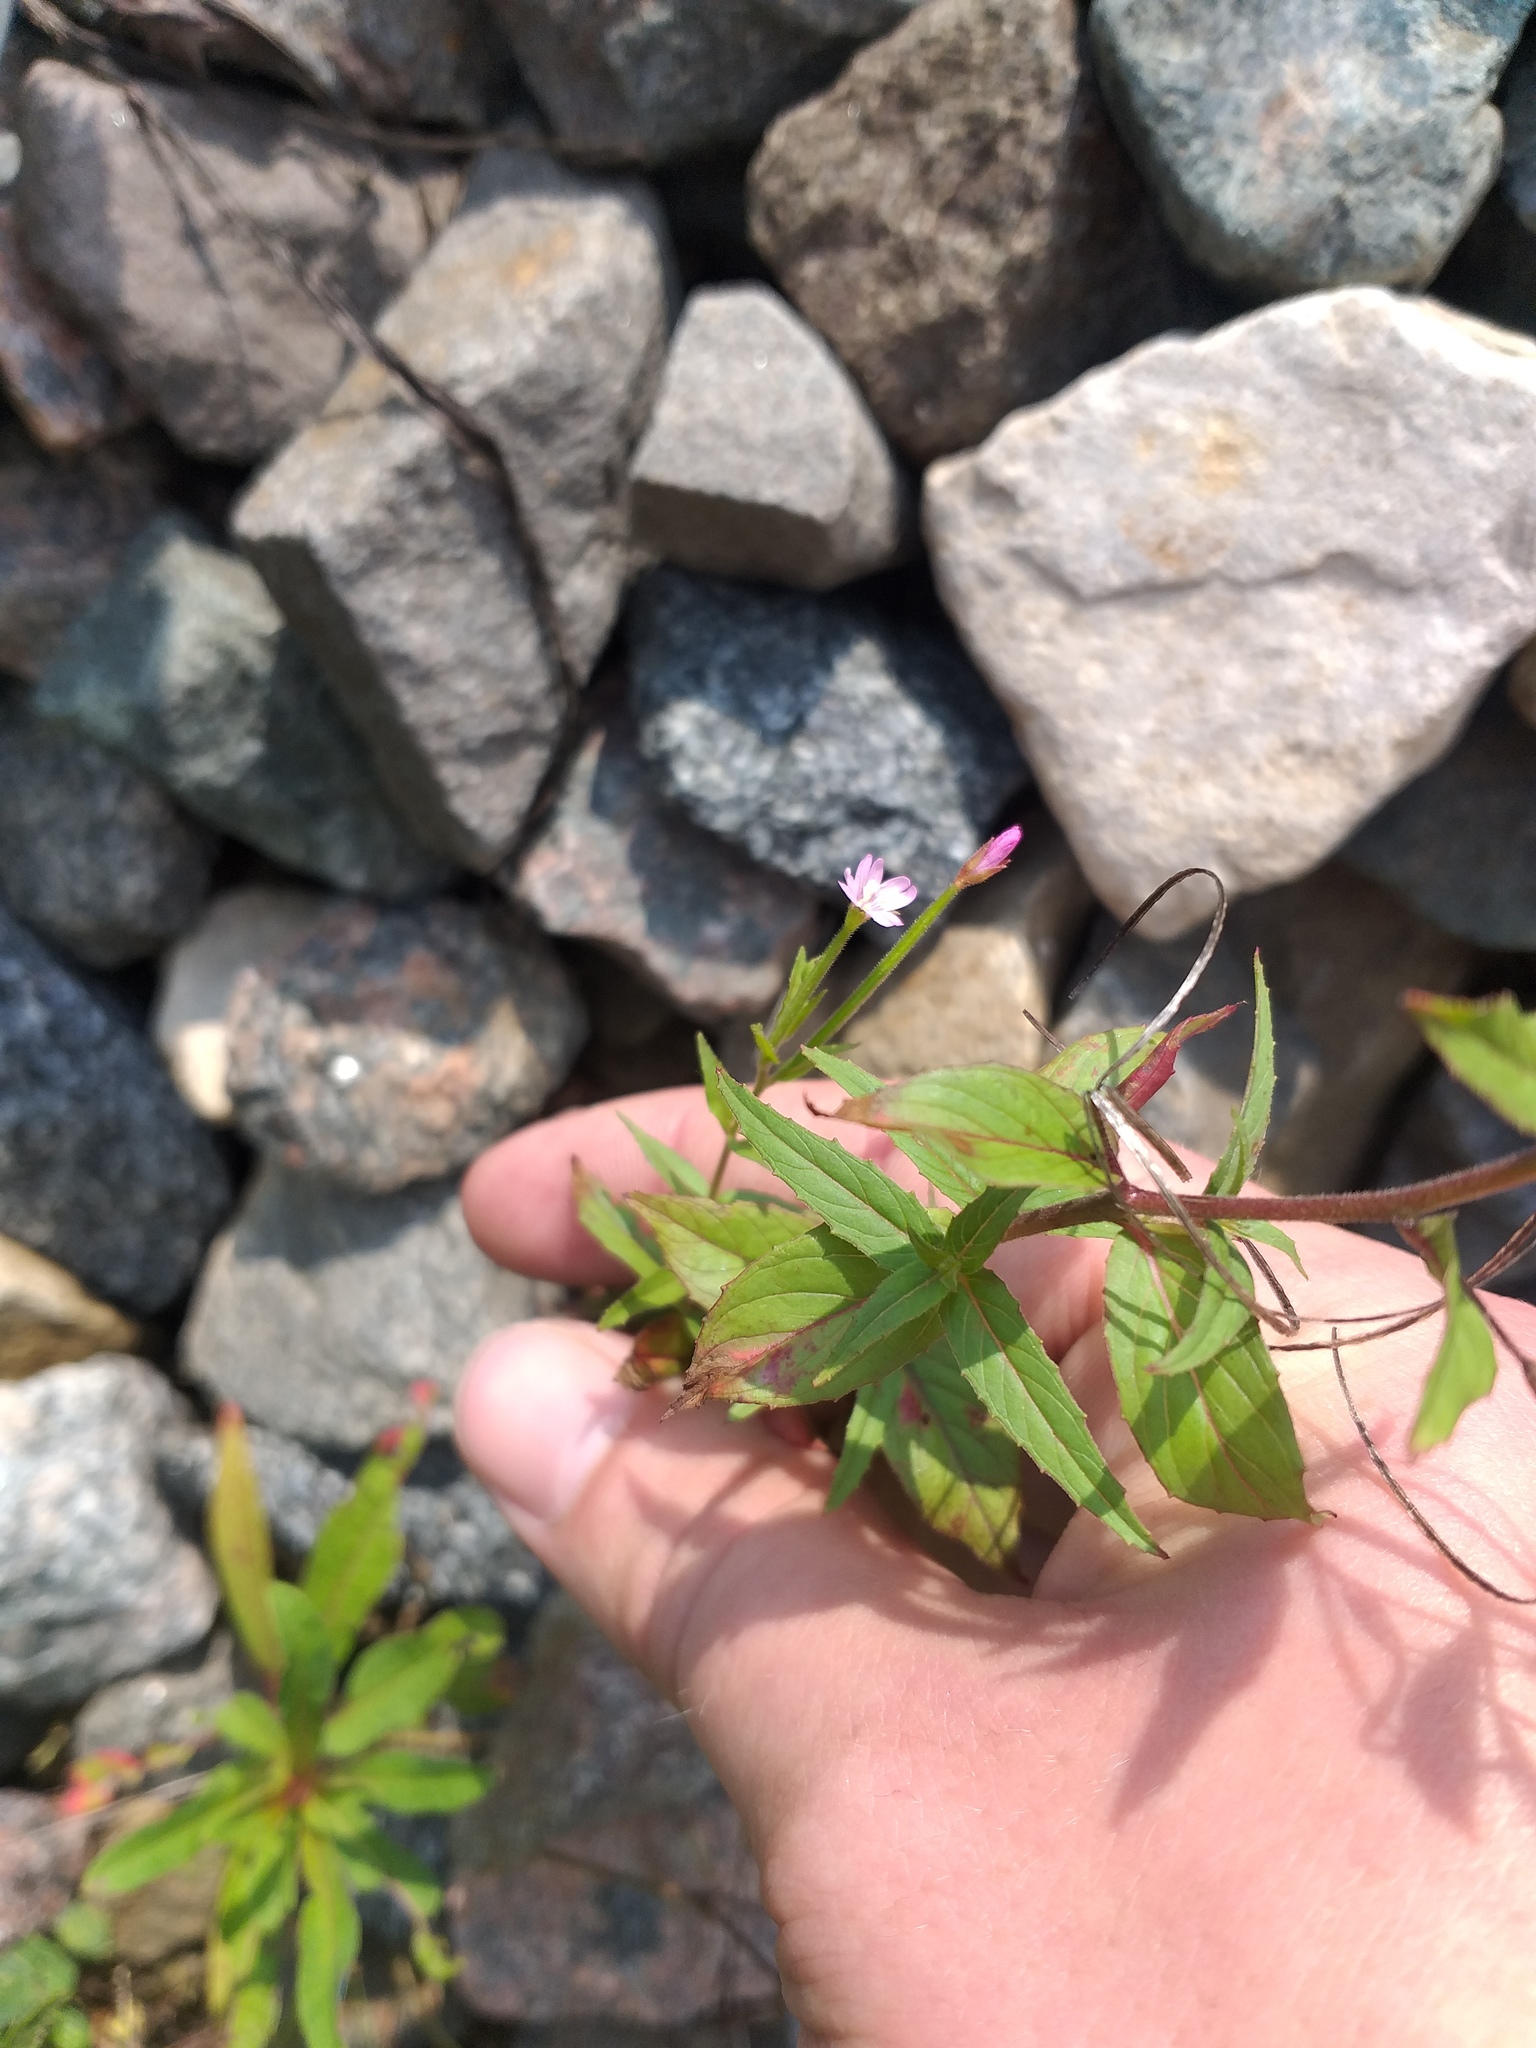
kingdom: Plantae
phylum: Tracheophyta
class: Magnoliopsida
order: Myrtales
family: Onagraceae
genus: Epilobium
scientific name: Epilobium ciliatum
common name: American willowherb
